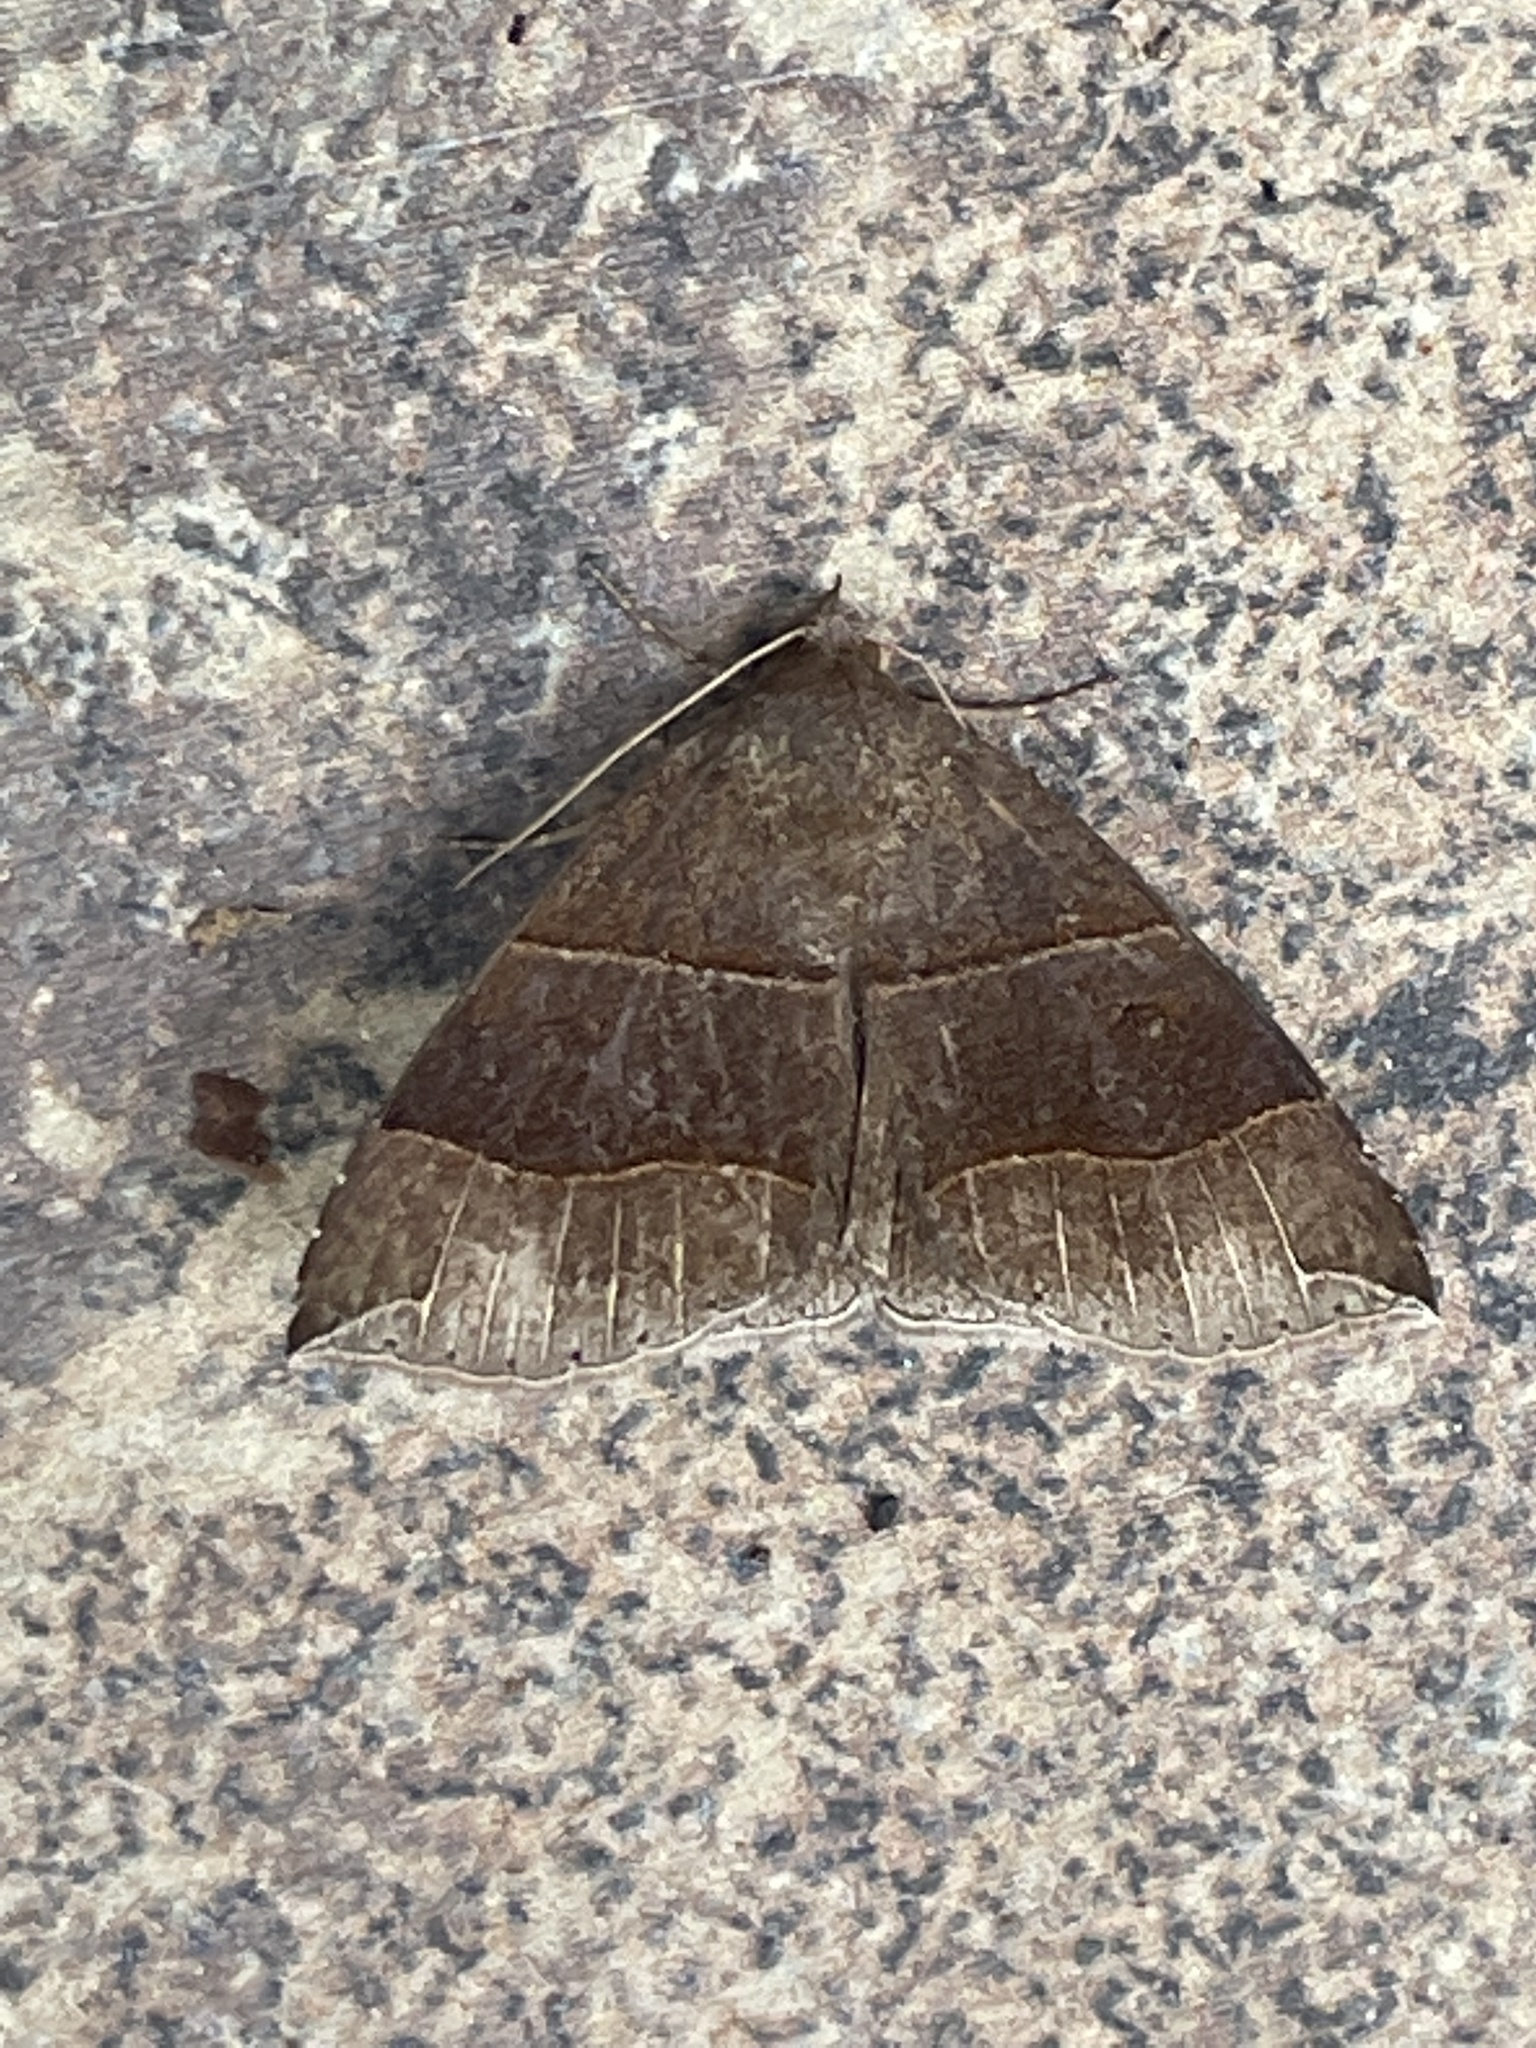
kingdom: Animalia
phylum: Arthropoda
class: Insecta
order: Lepidoptera
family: Erebidae
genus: Parallelia
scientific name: Parallelia bistriaris
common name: Maple looper moth
